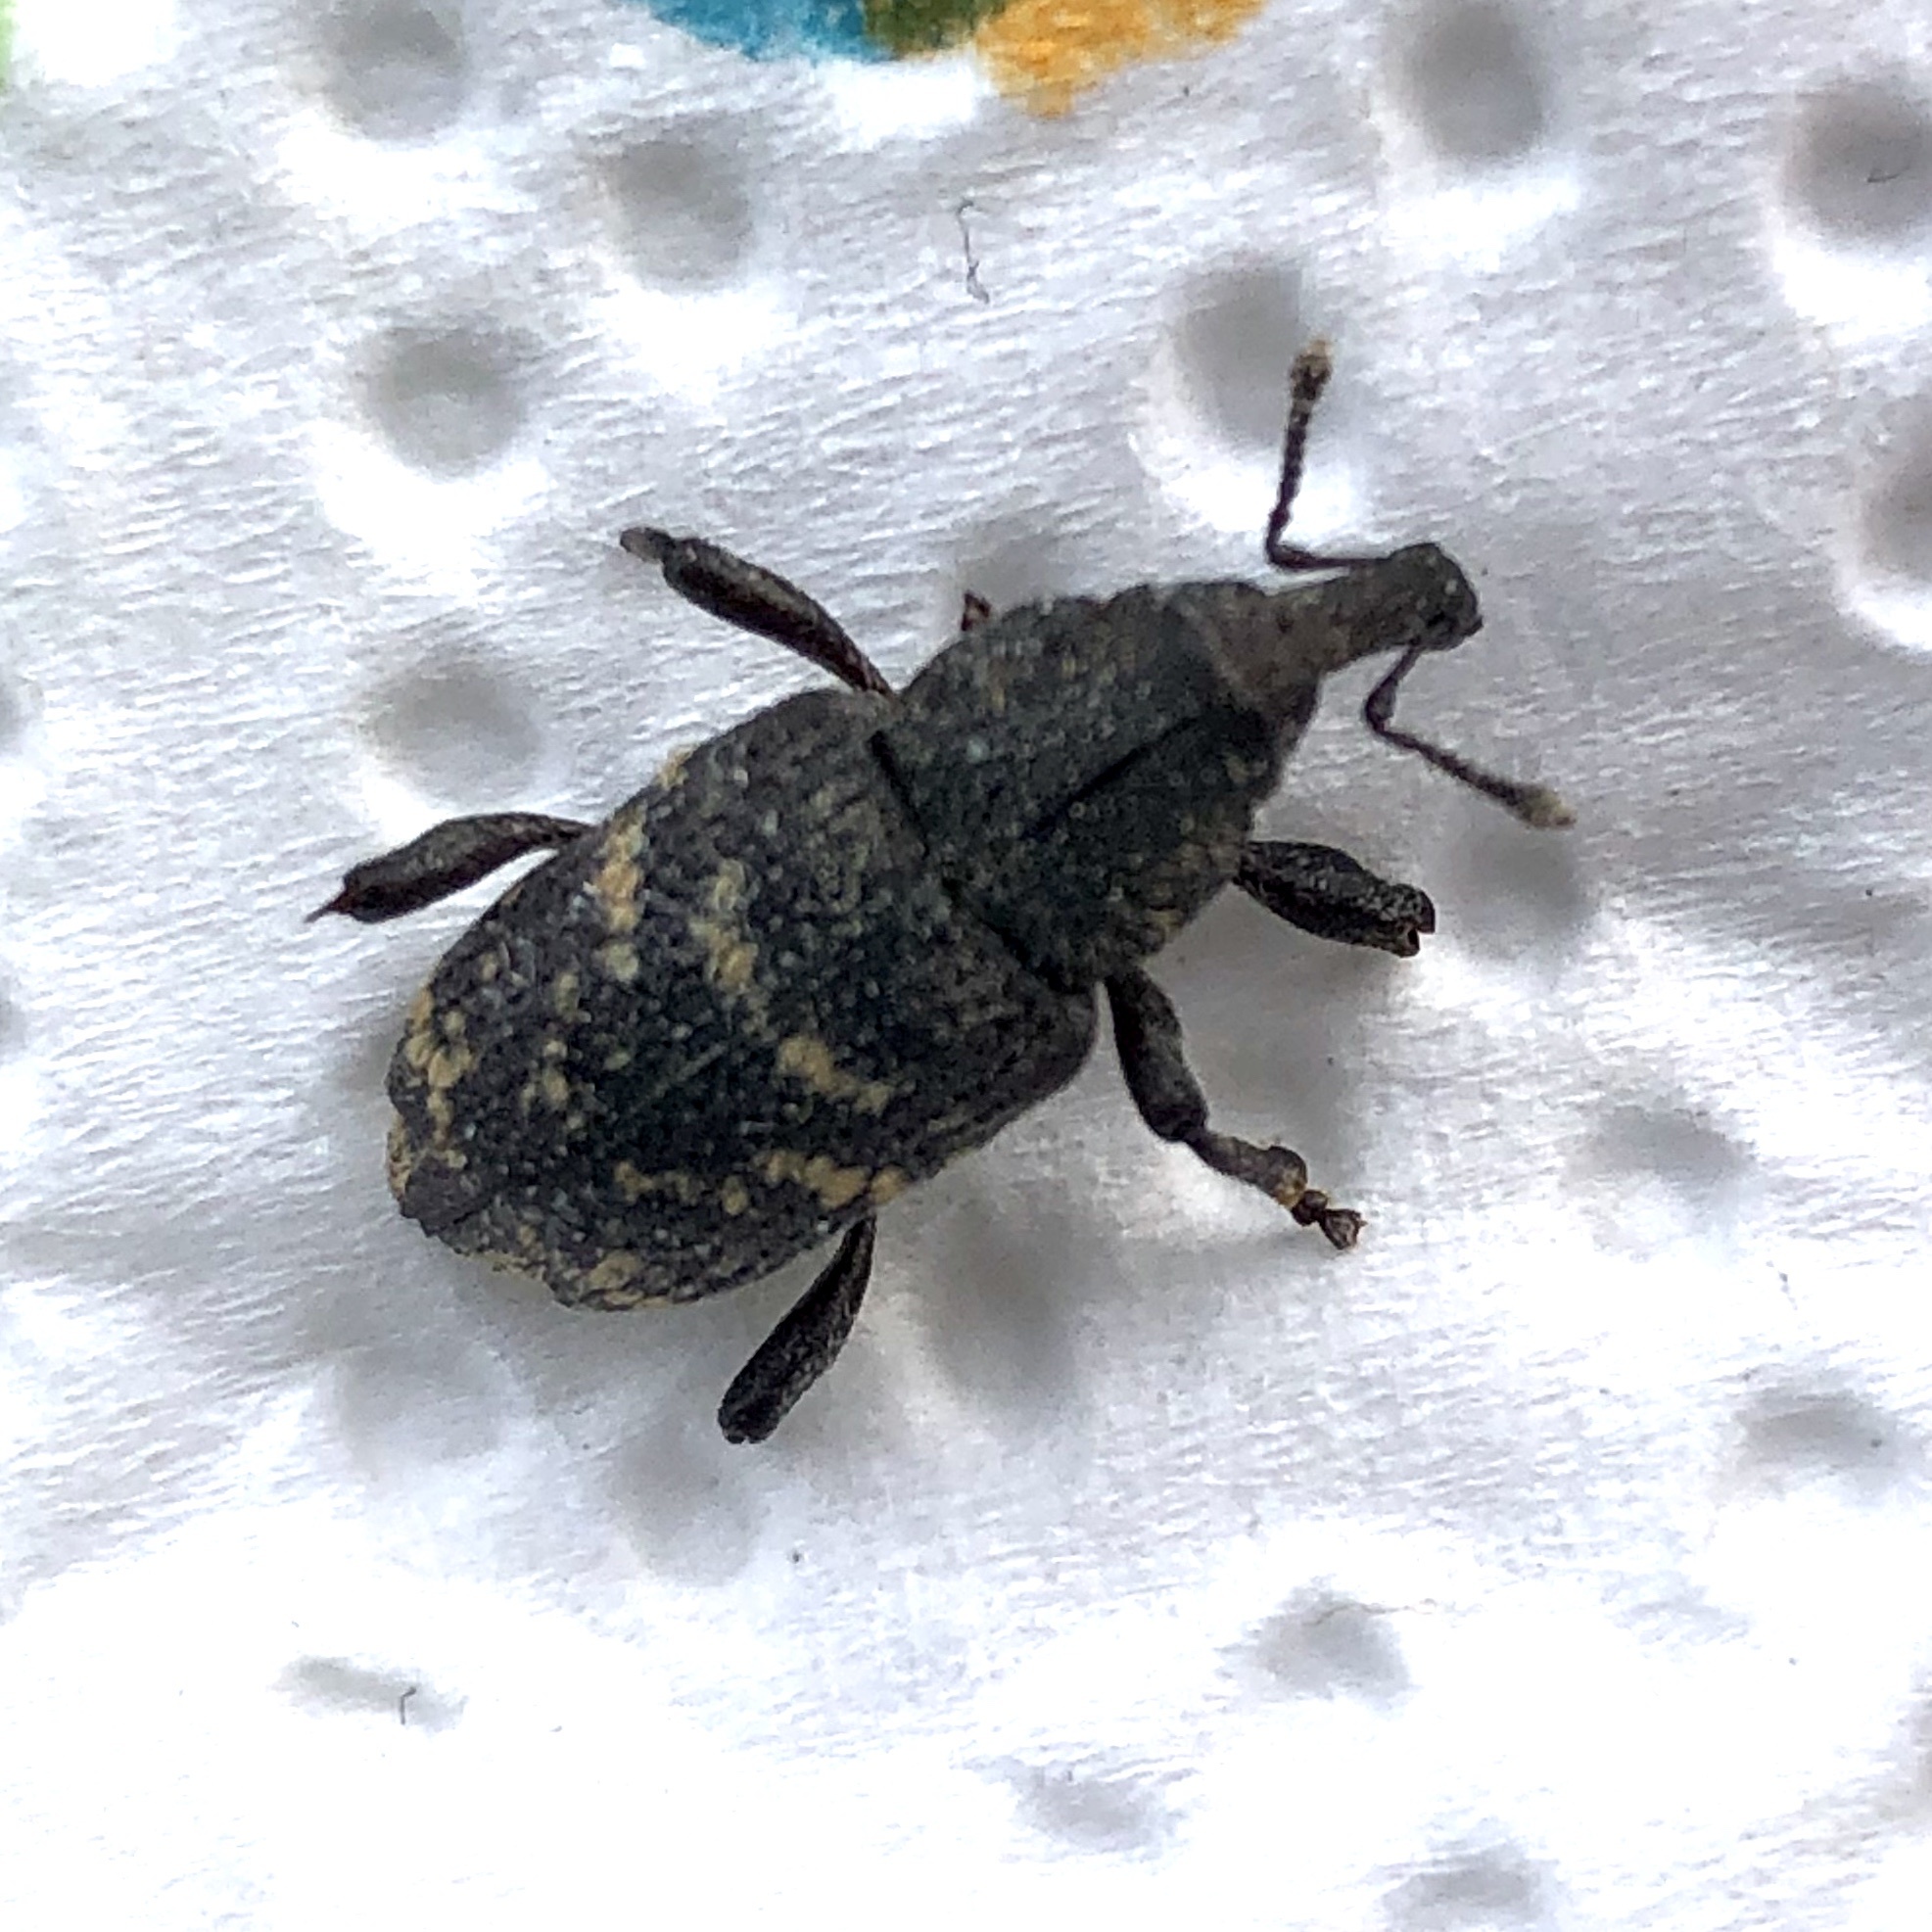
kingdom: Animalia
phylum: Arthropoda
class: Insecta
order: Coleoptera
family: Curculionidae
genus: Hylobius
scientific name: Hylobius abietis
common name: Large pine weevil
